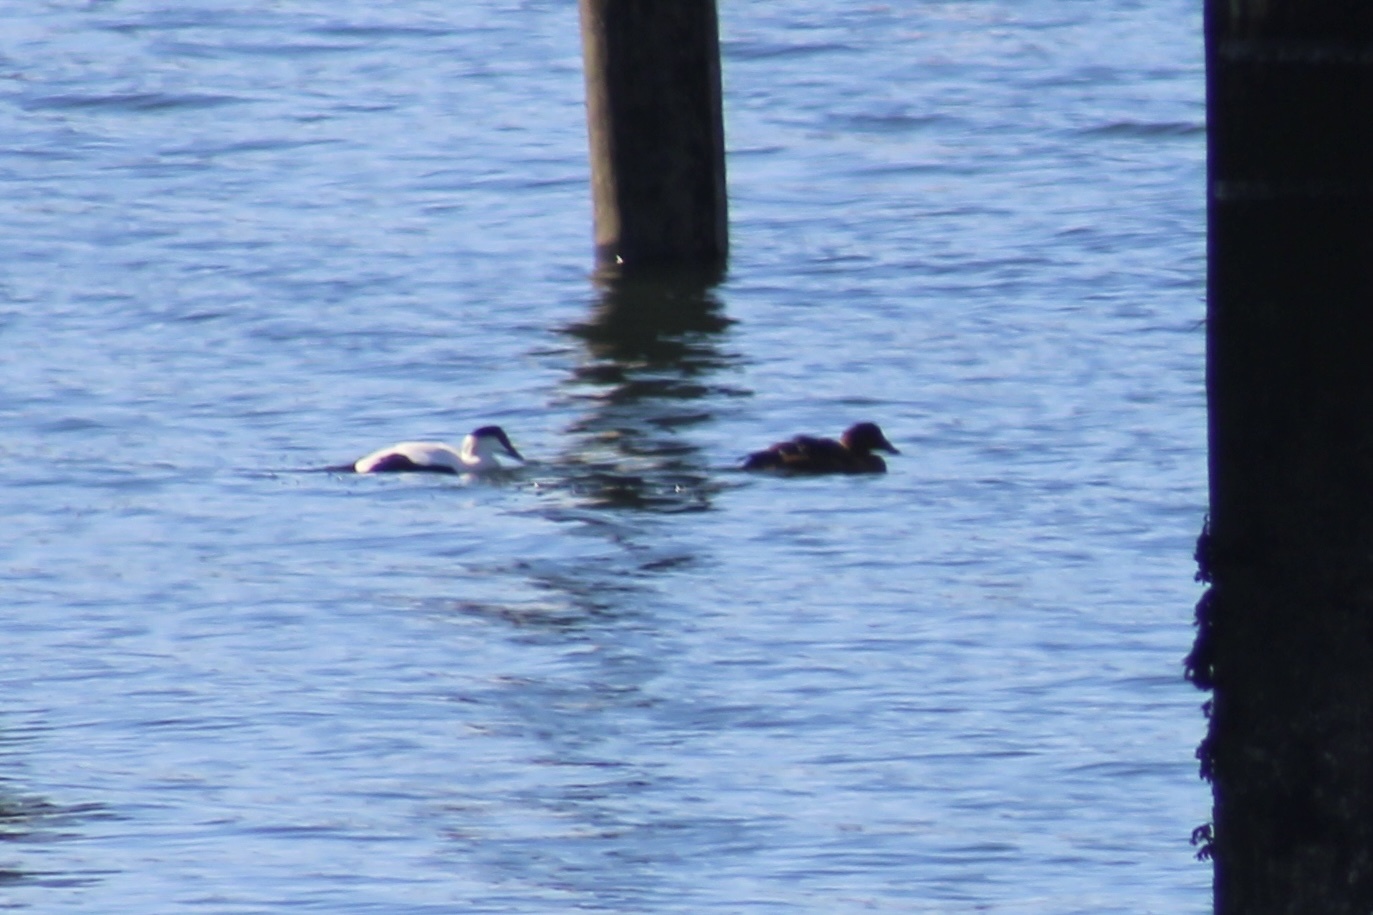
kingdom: Animalia
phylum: Chordata
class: Aves
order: Anseriformes
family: Anatidae
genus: Somateria
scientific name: Somateria mollissima
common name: Common eider
